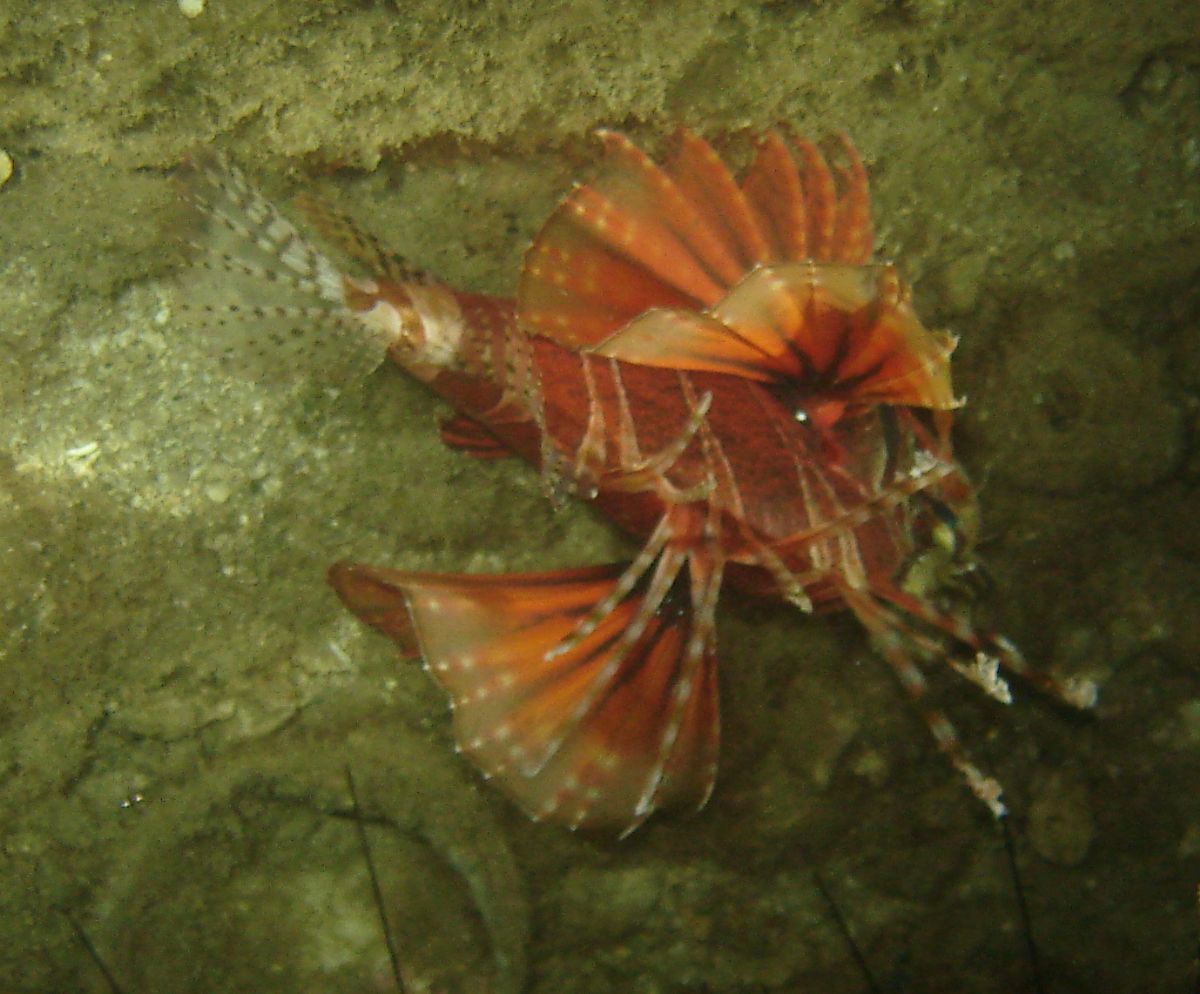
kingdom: Animalia
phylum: Chordata
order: Scorpaeniformes
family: Scorpaenidae
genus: Dendrochirus
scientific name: Dendrochirus zebra
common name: Zebra lionfish
